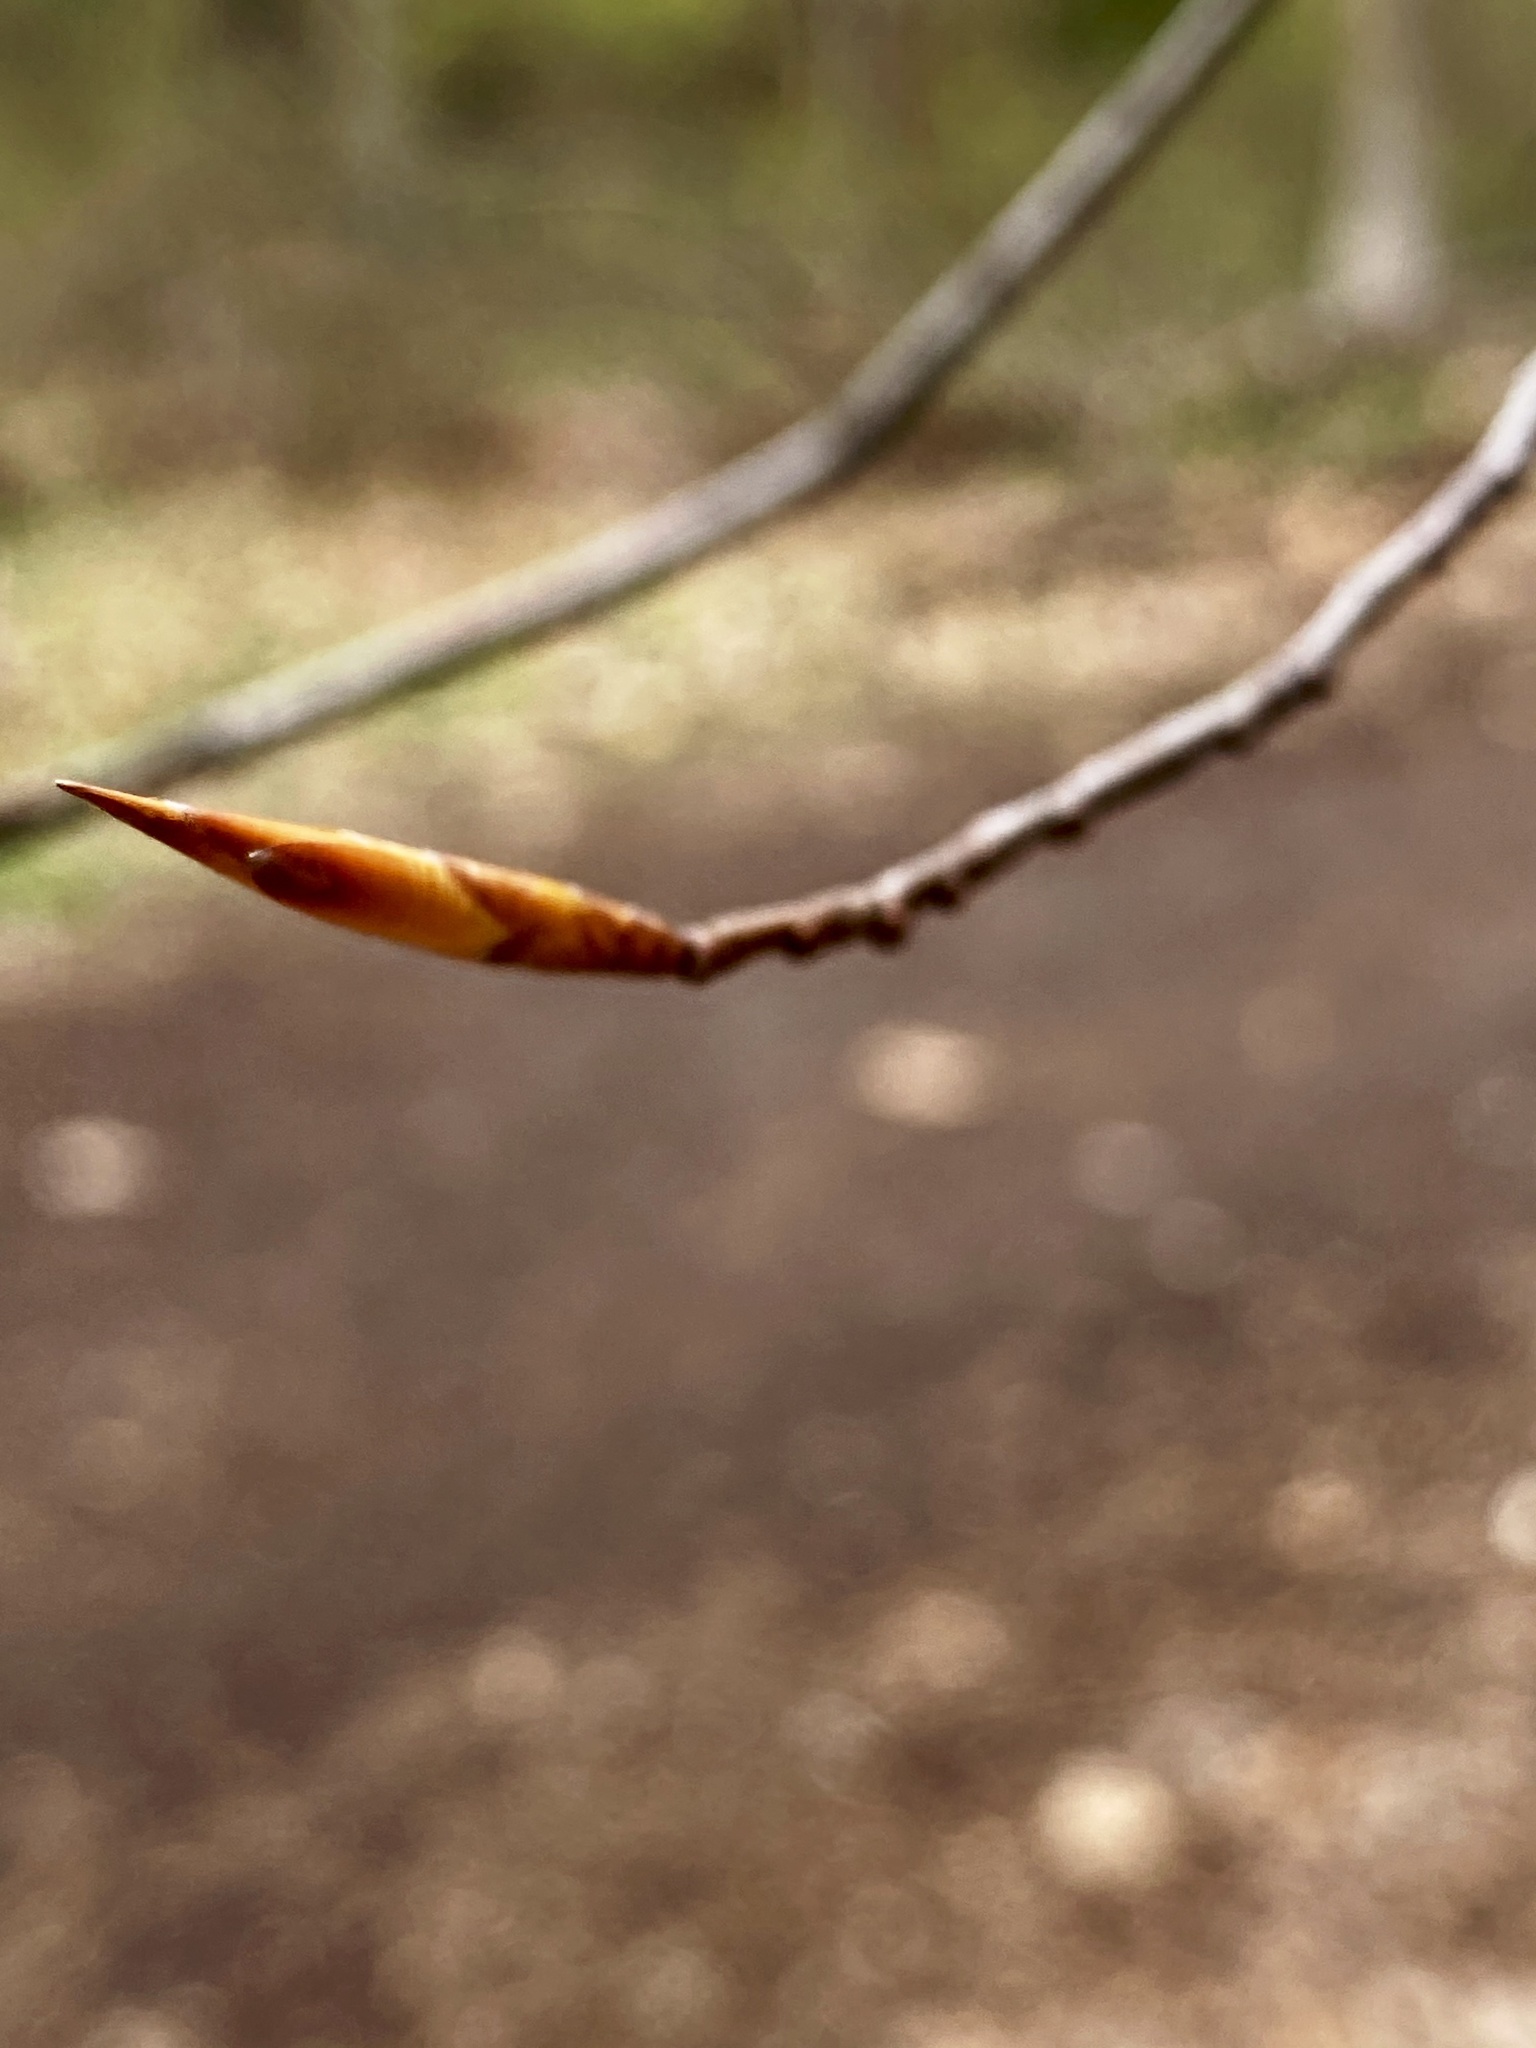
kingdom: Plantae
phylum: Tracheophyta
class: Magnoliopsida
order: Fagales
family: Fagaceae
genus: Fagus
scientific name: Fagus grandifolia
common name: American beech
